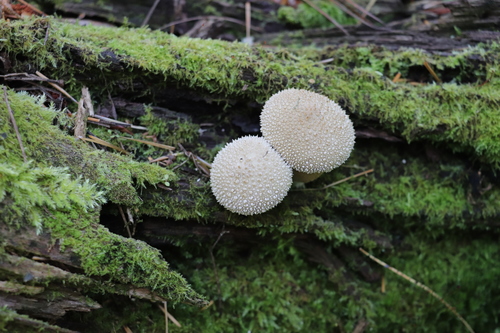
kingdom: Fungi
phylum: Basidiomycota
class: Agaricomycetes
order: Agaricales
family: Lycoperdaceae
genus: Lycoperdon
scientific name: Lycoperdon perlatum
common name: Common puffball
